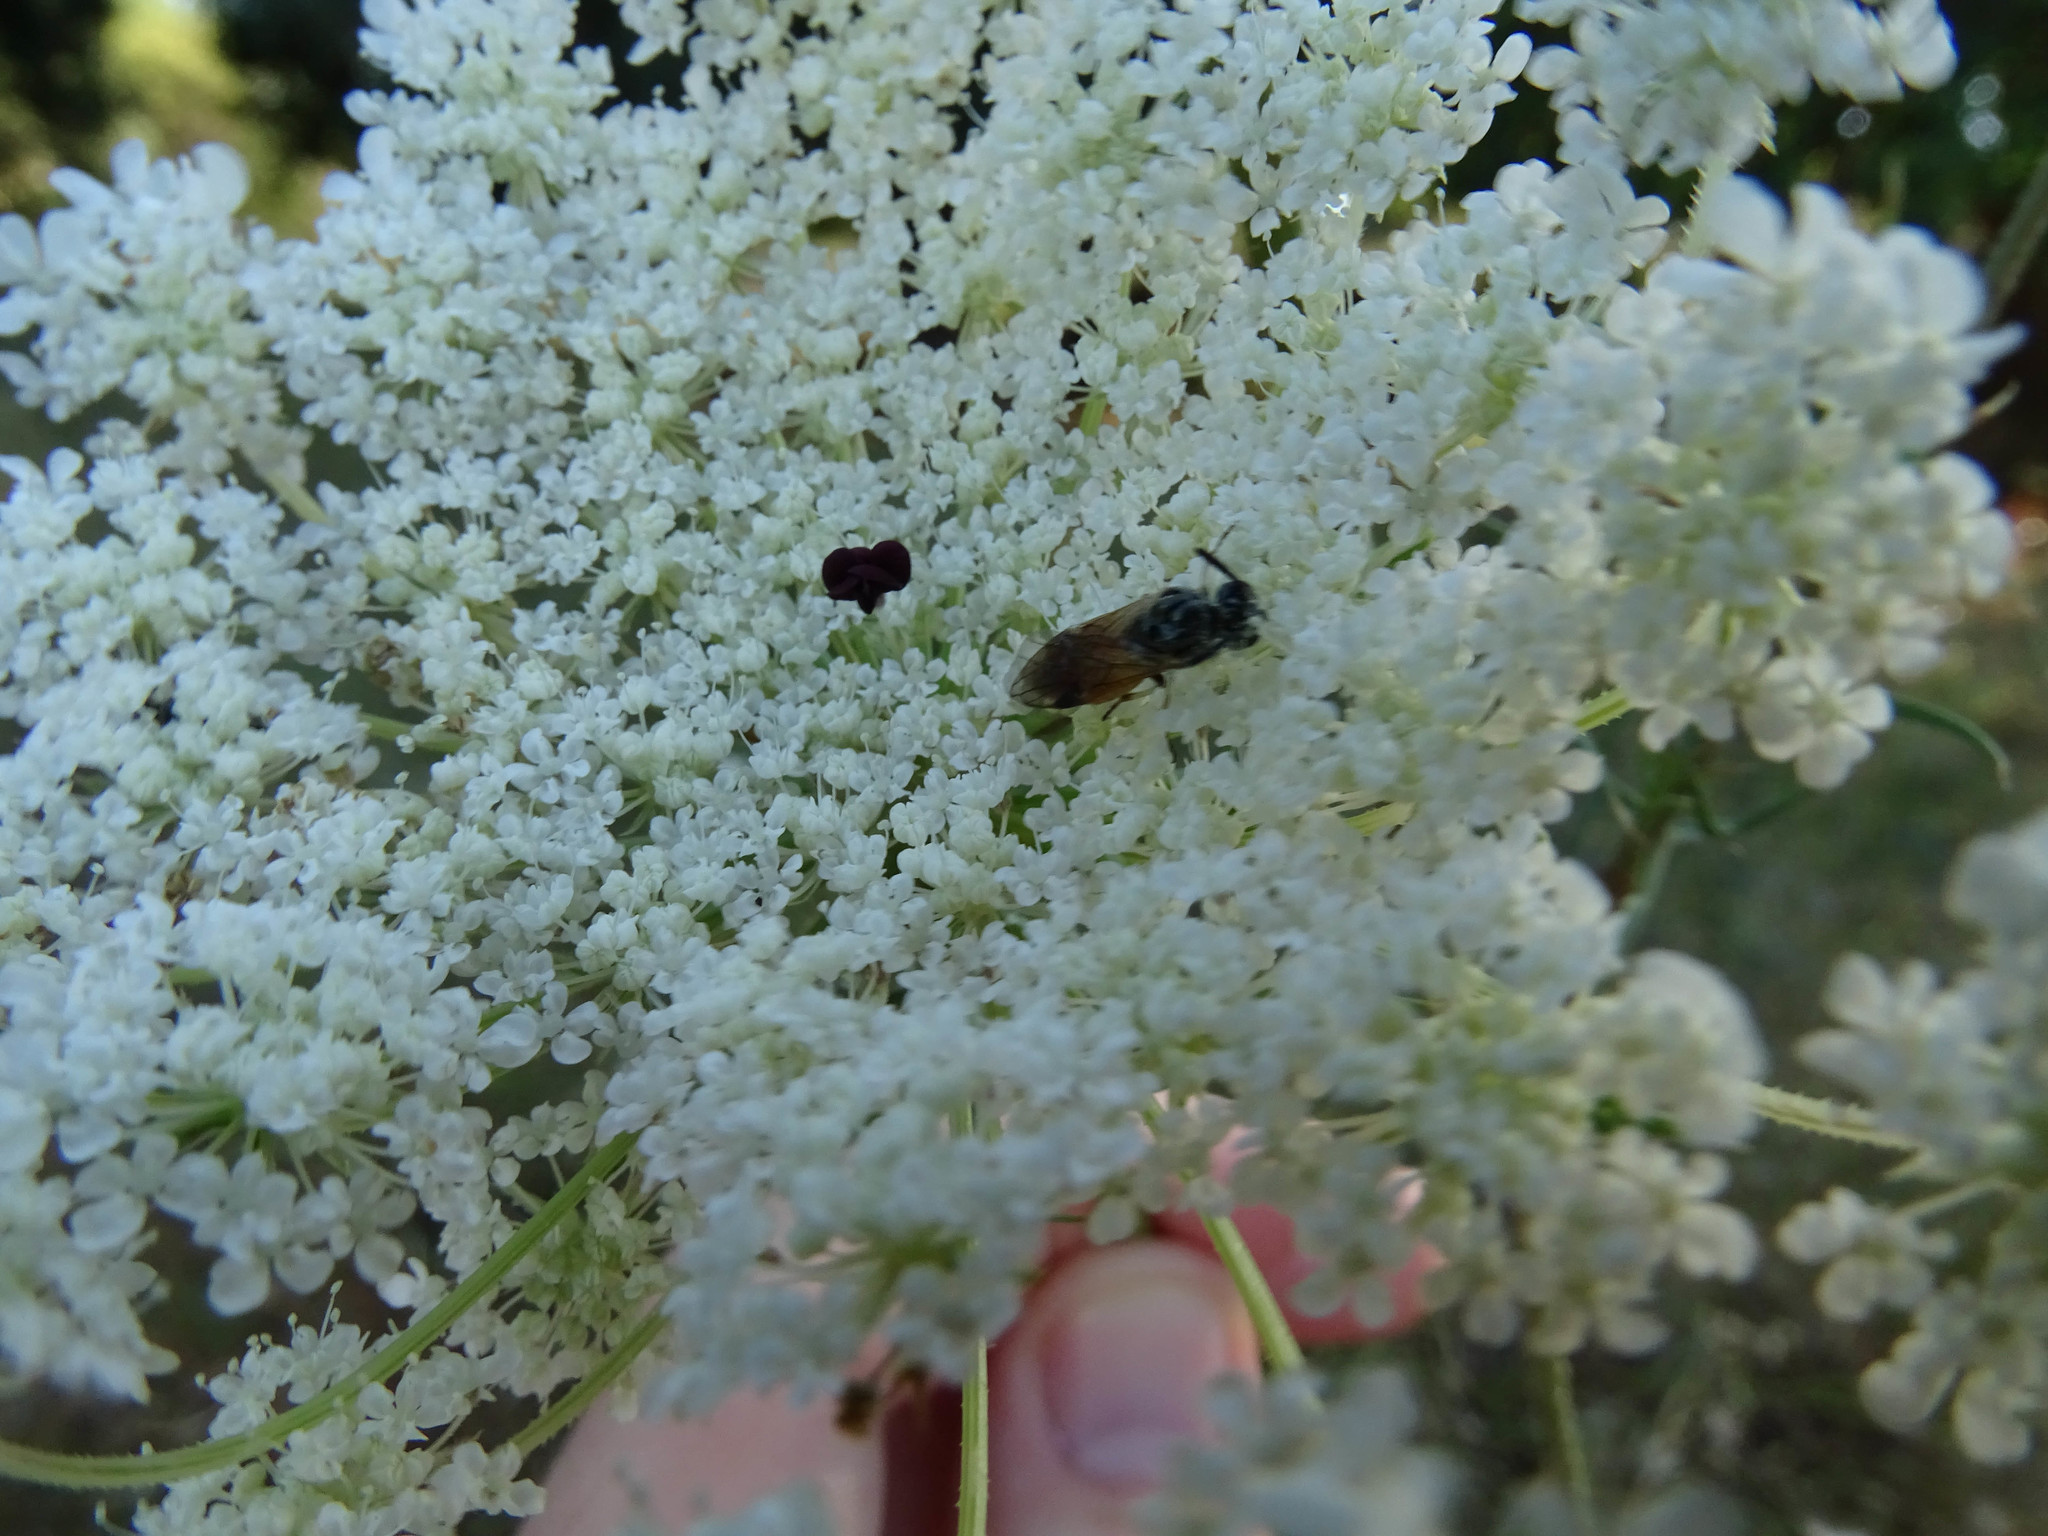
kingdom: Animalia
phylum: Arthropoda
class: Insecta
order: Hymenoptera
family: Argidae
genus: Arge
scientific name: Arge
